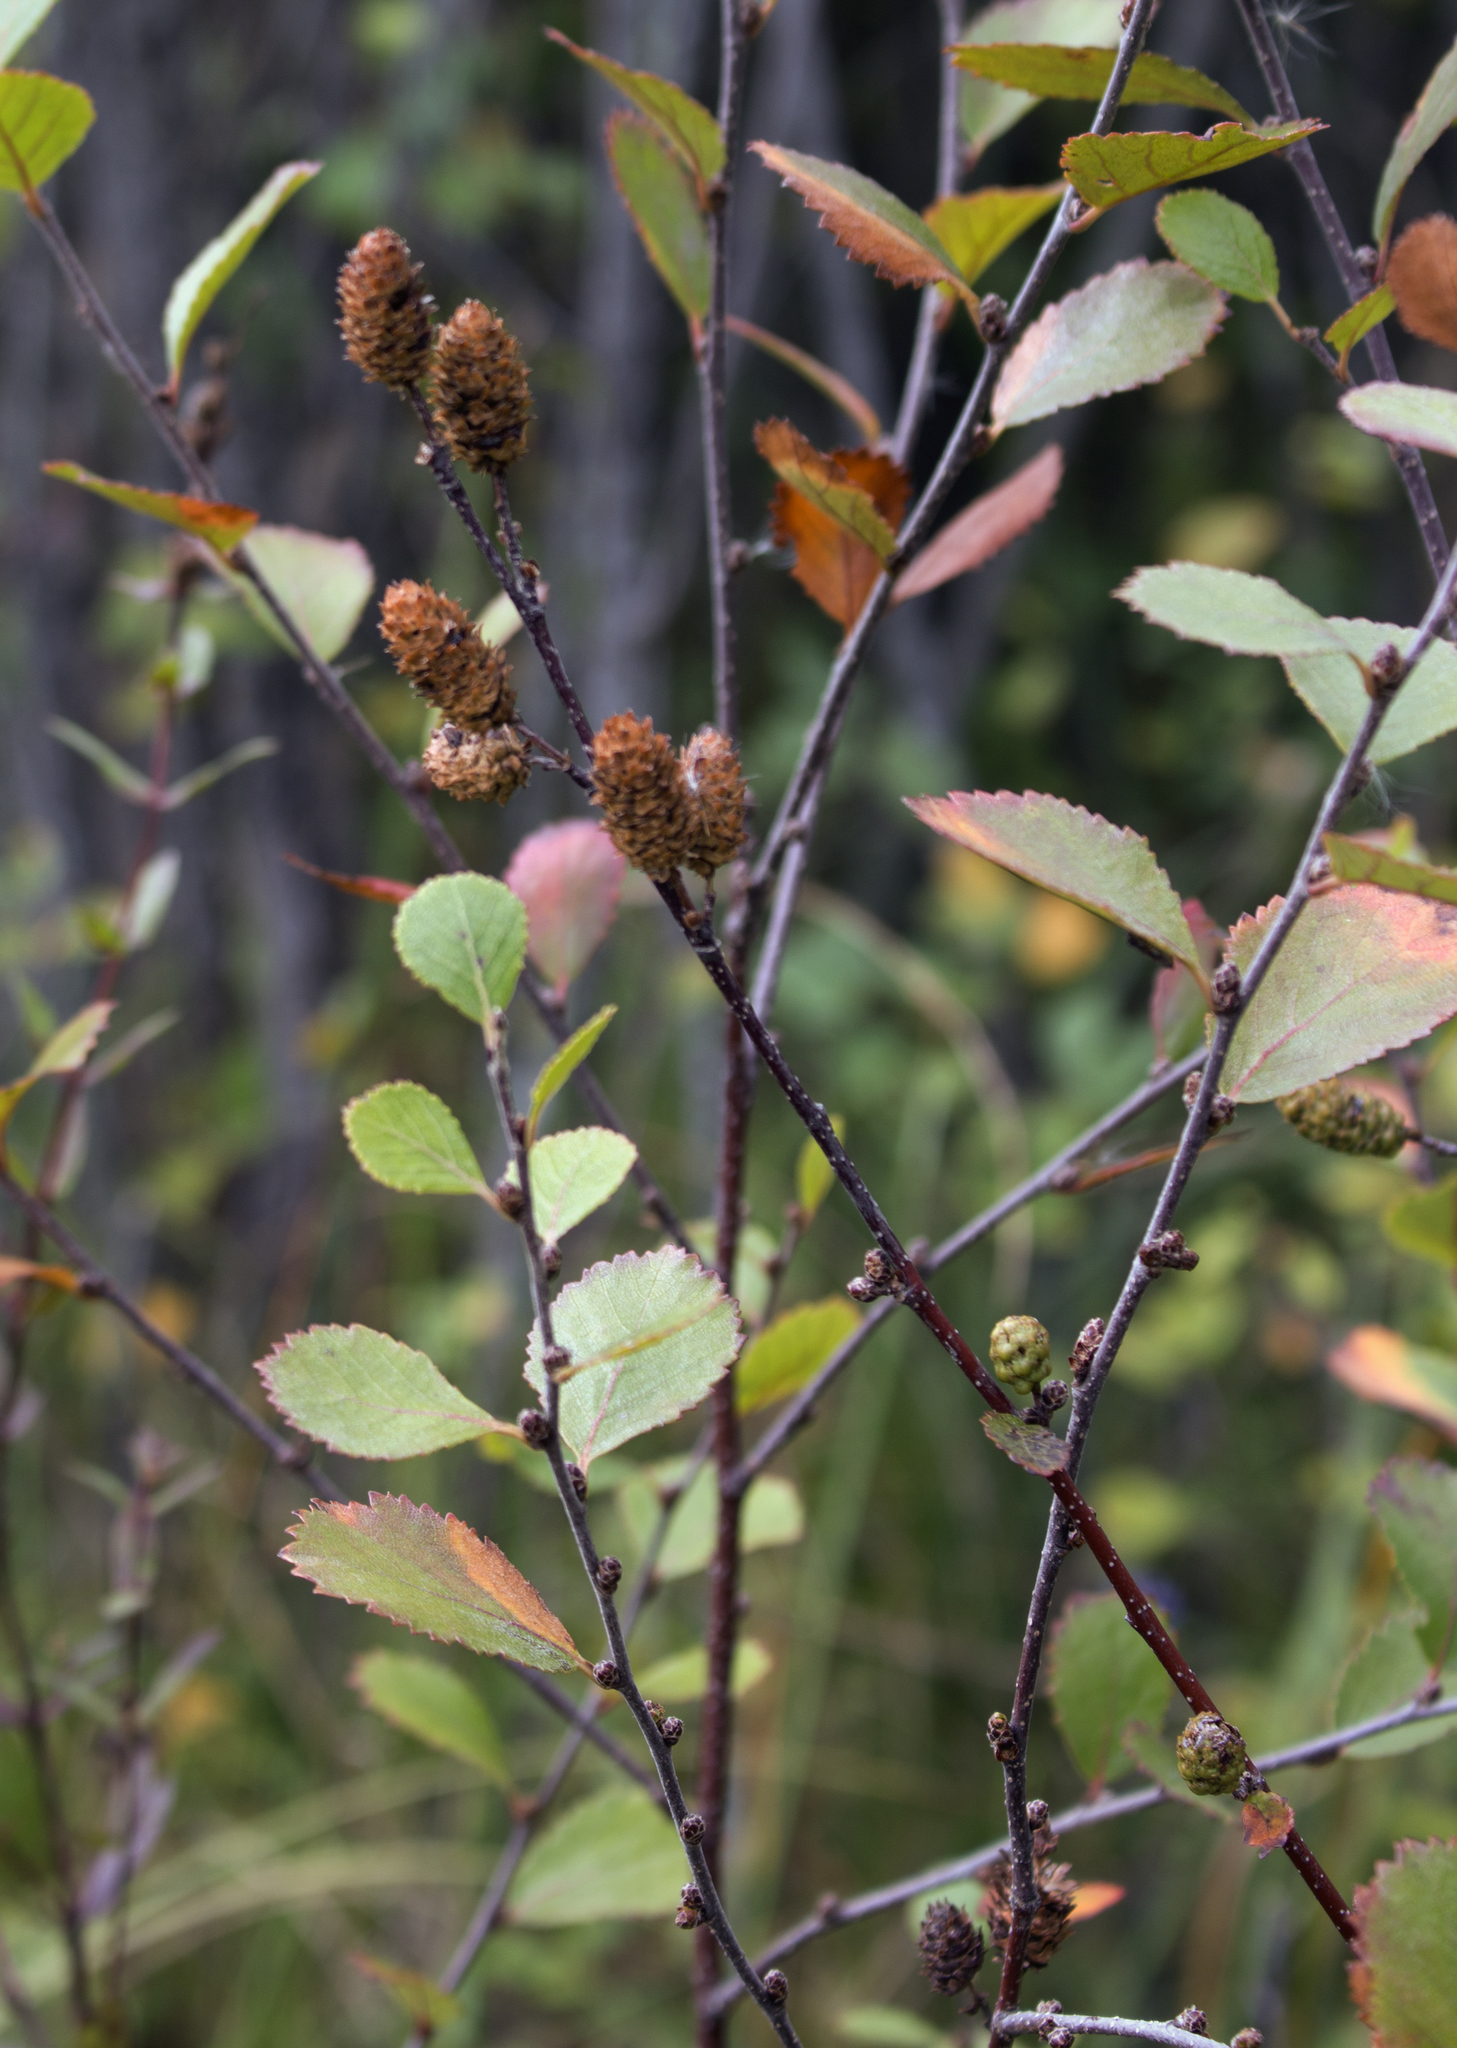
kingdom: Plantae
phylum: Tracheophyta
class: Magnoliopsida
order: Fagales
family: Betulaceae
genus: Betula
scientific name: Betula pumila
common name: Bog birch
